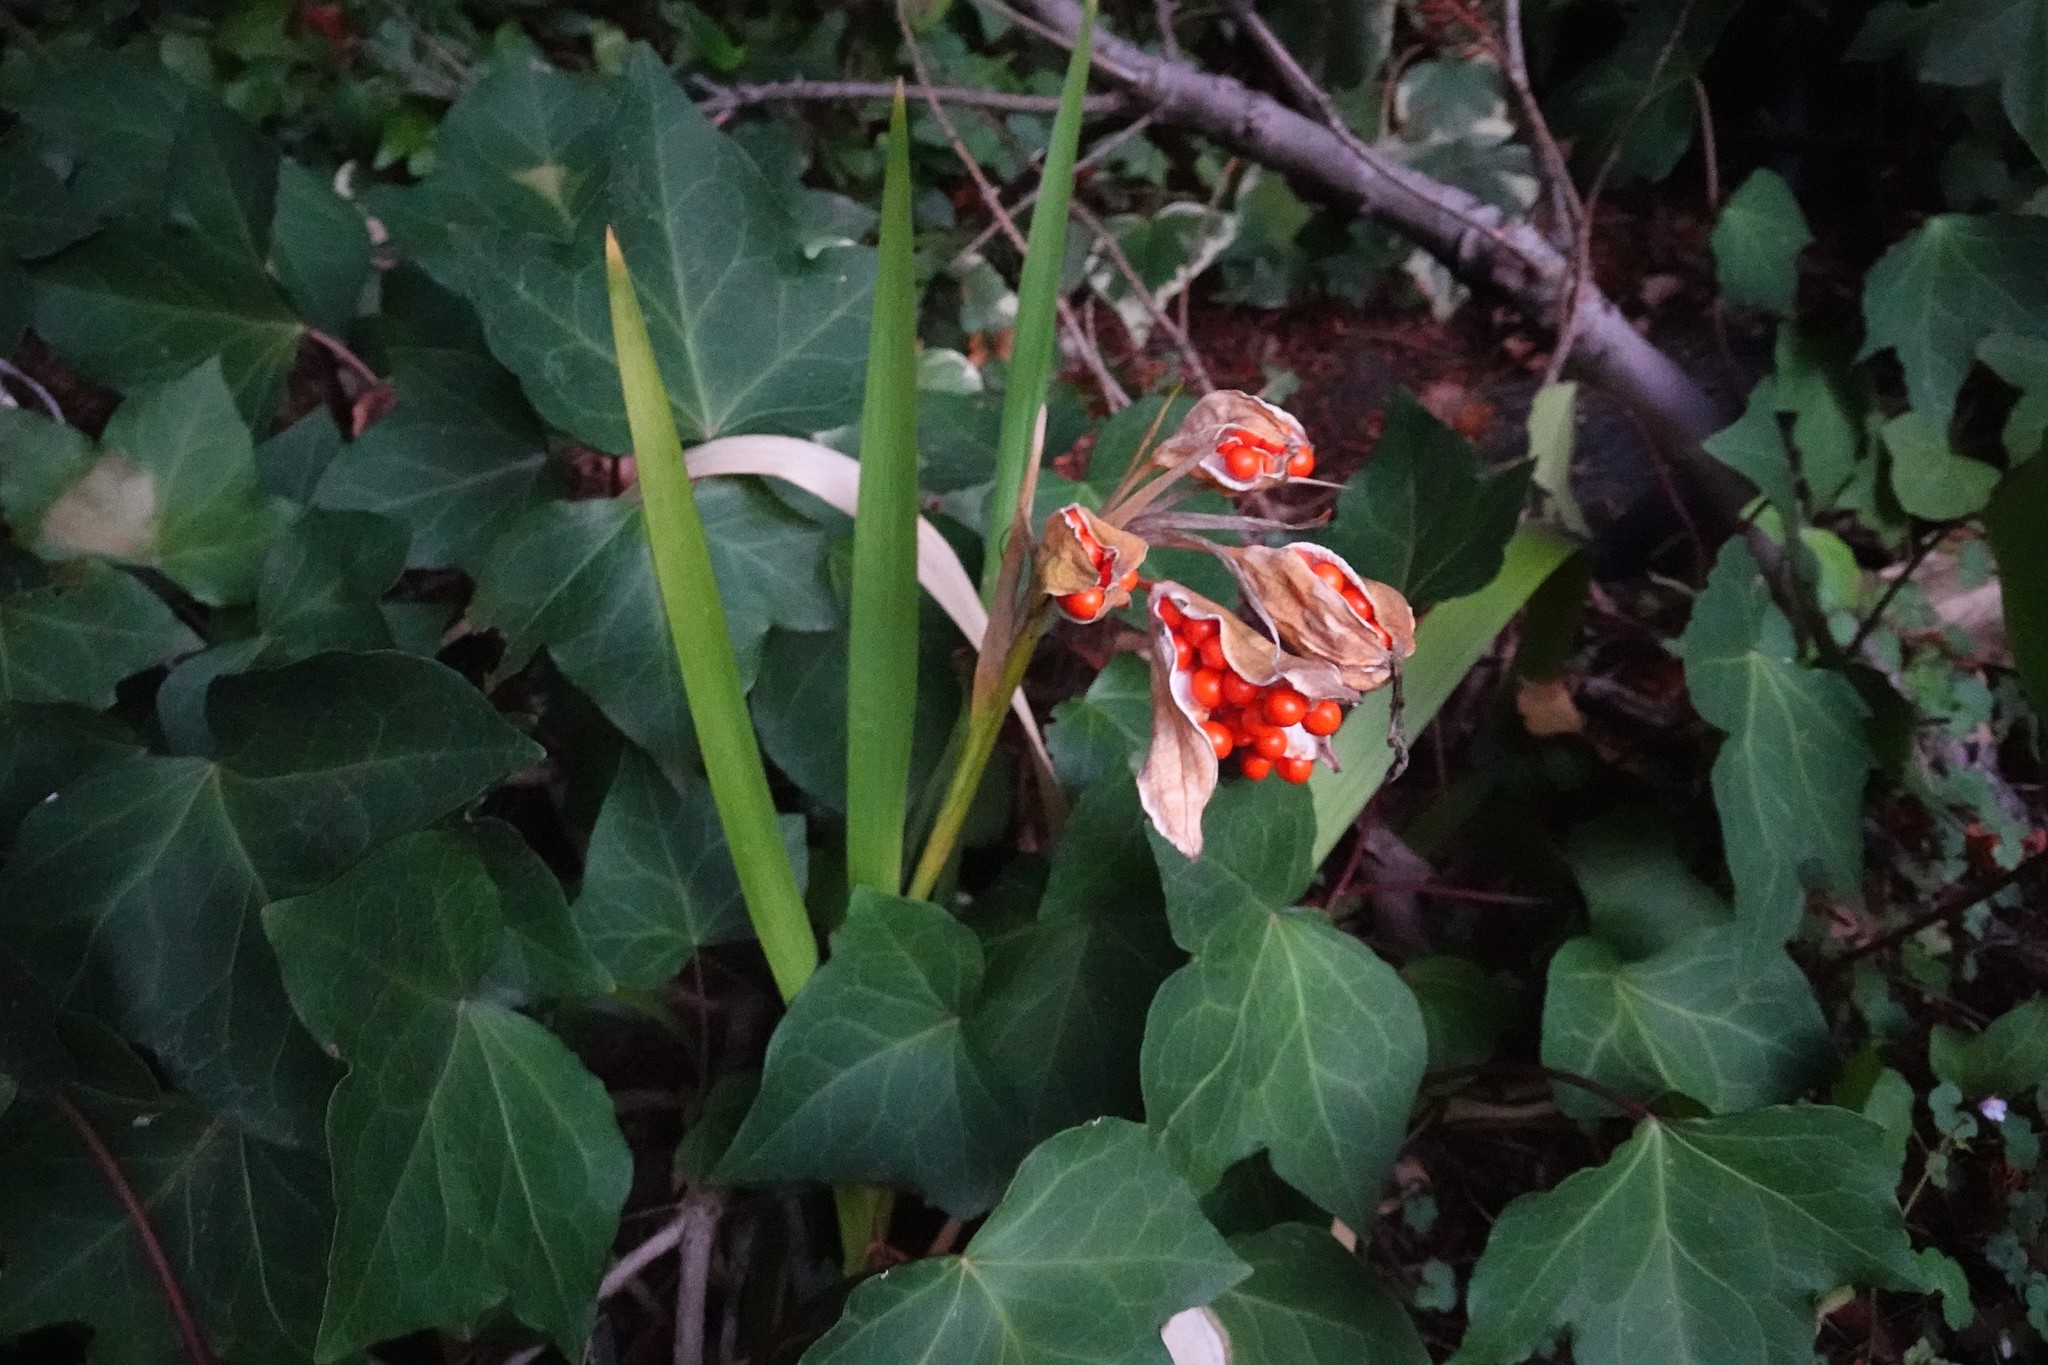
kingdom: Plantae
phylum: Tracheophyta
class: Liliopsida
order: Asparagales
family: Iridaceae
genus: Iris
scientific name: Iris foetidissima
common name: Stinking iris
